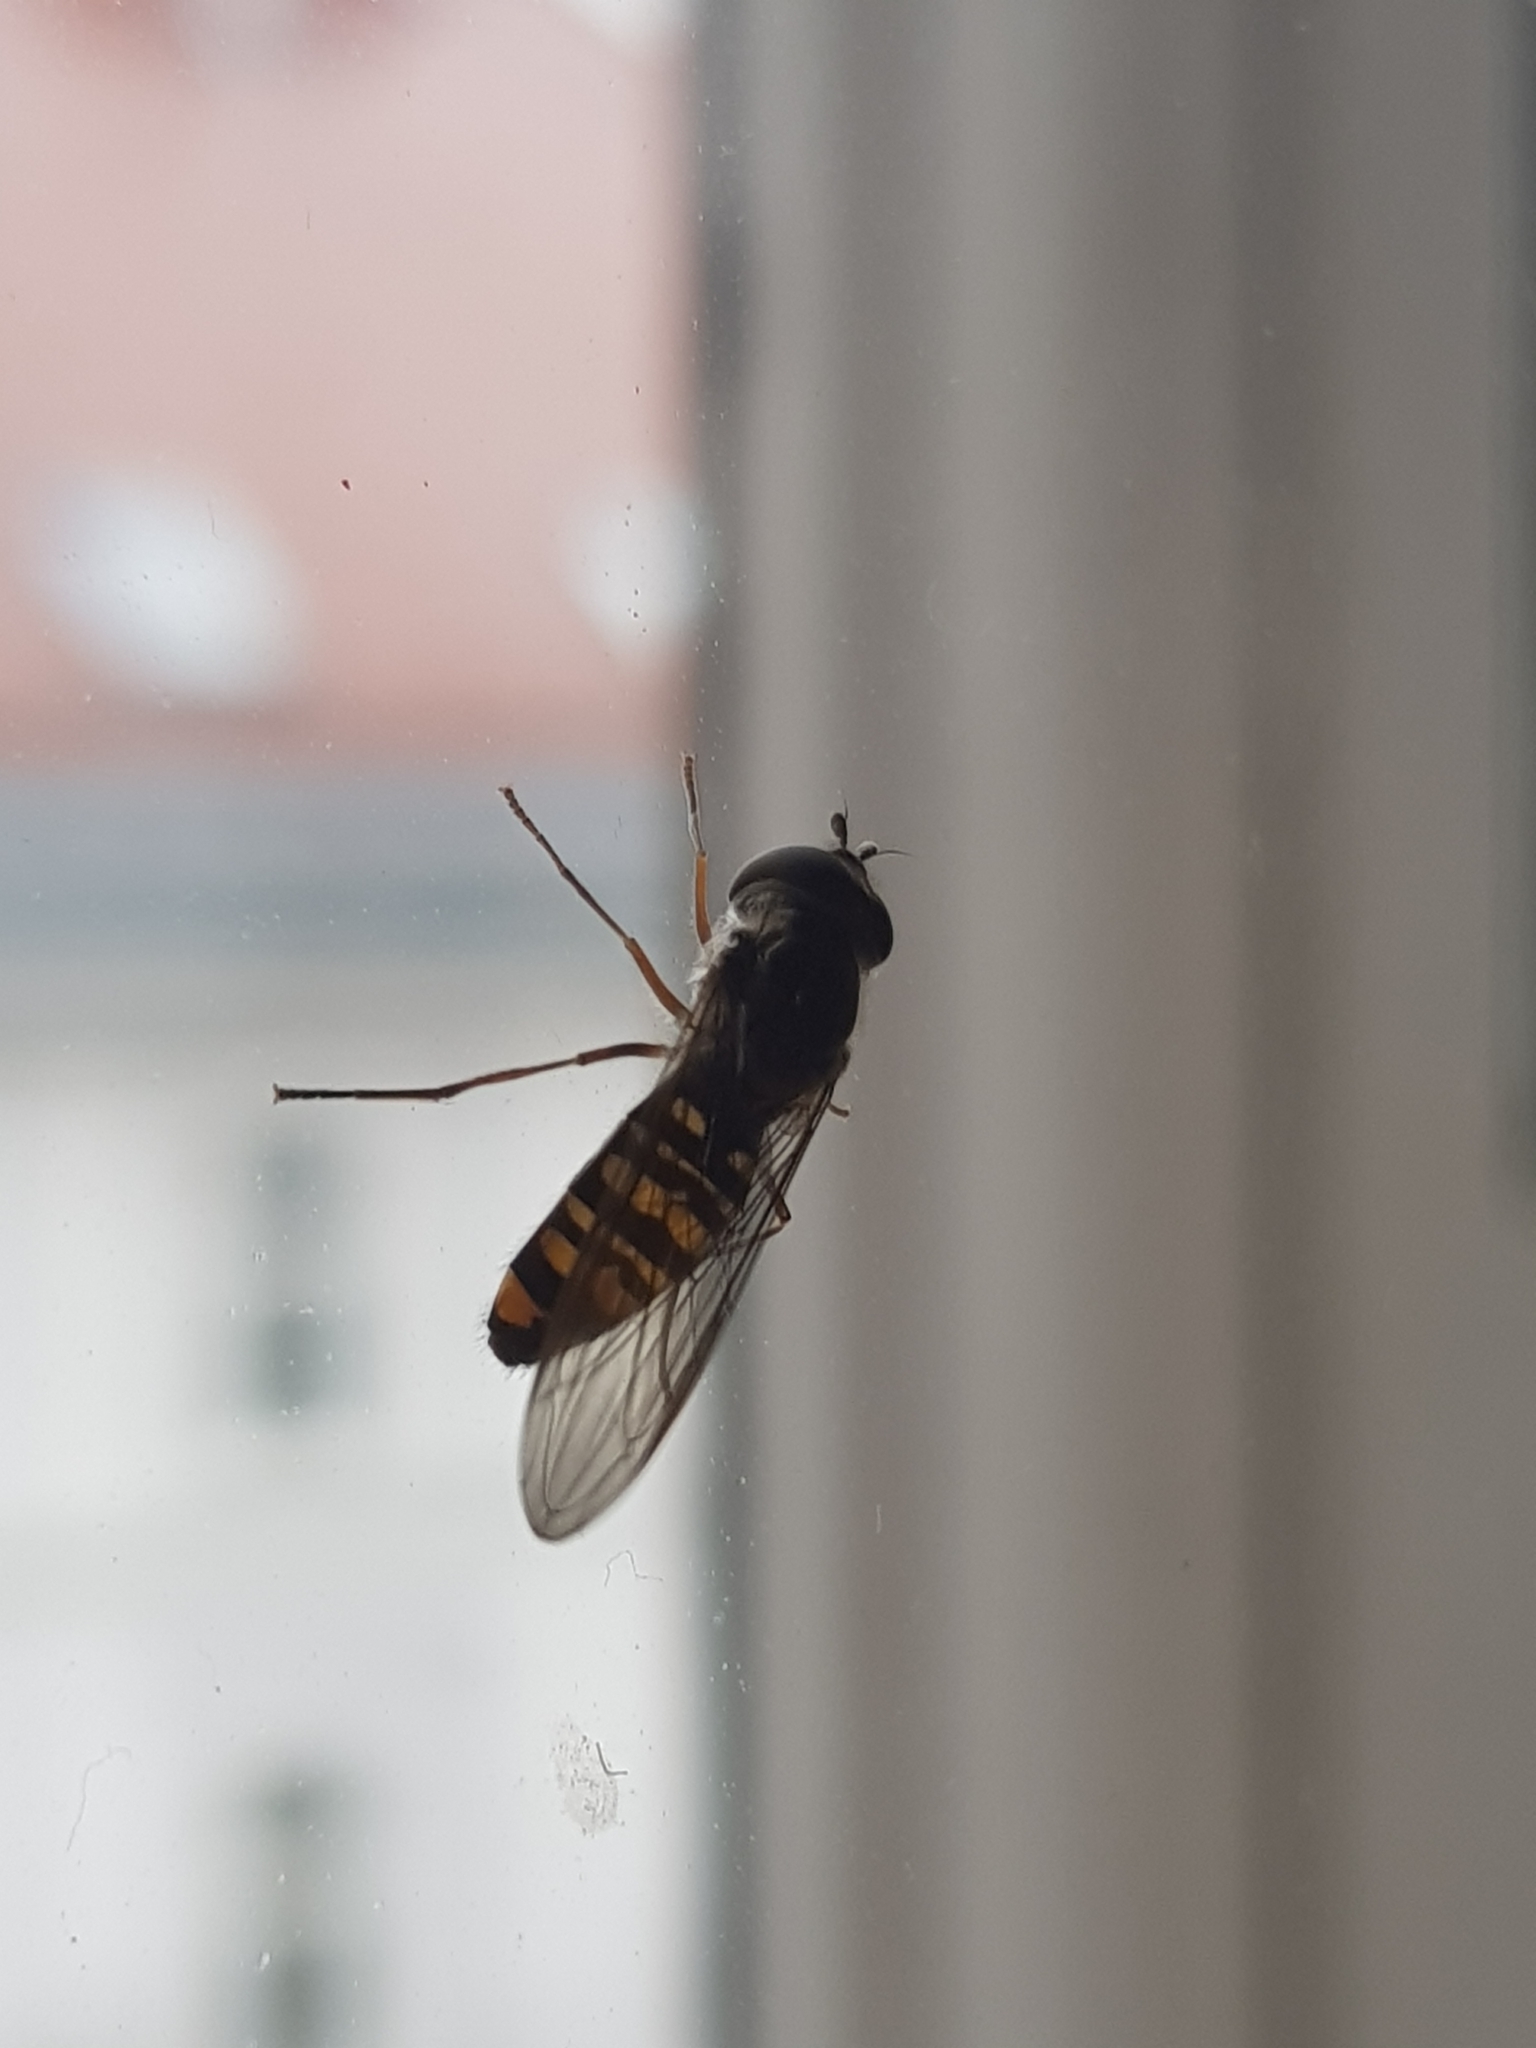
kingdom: Animalia
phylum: Arthropoda
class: Insecta
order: Diptera
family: Syrphidae
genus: Episyrphus
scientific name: Episyrphus balteatus
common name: Marmalade hoverfly
